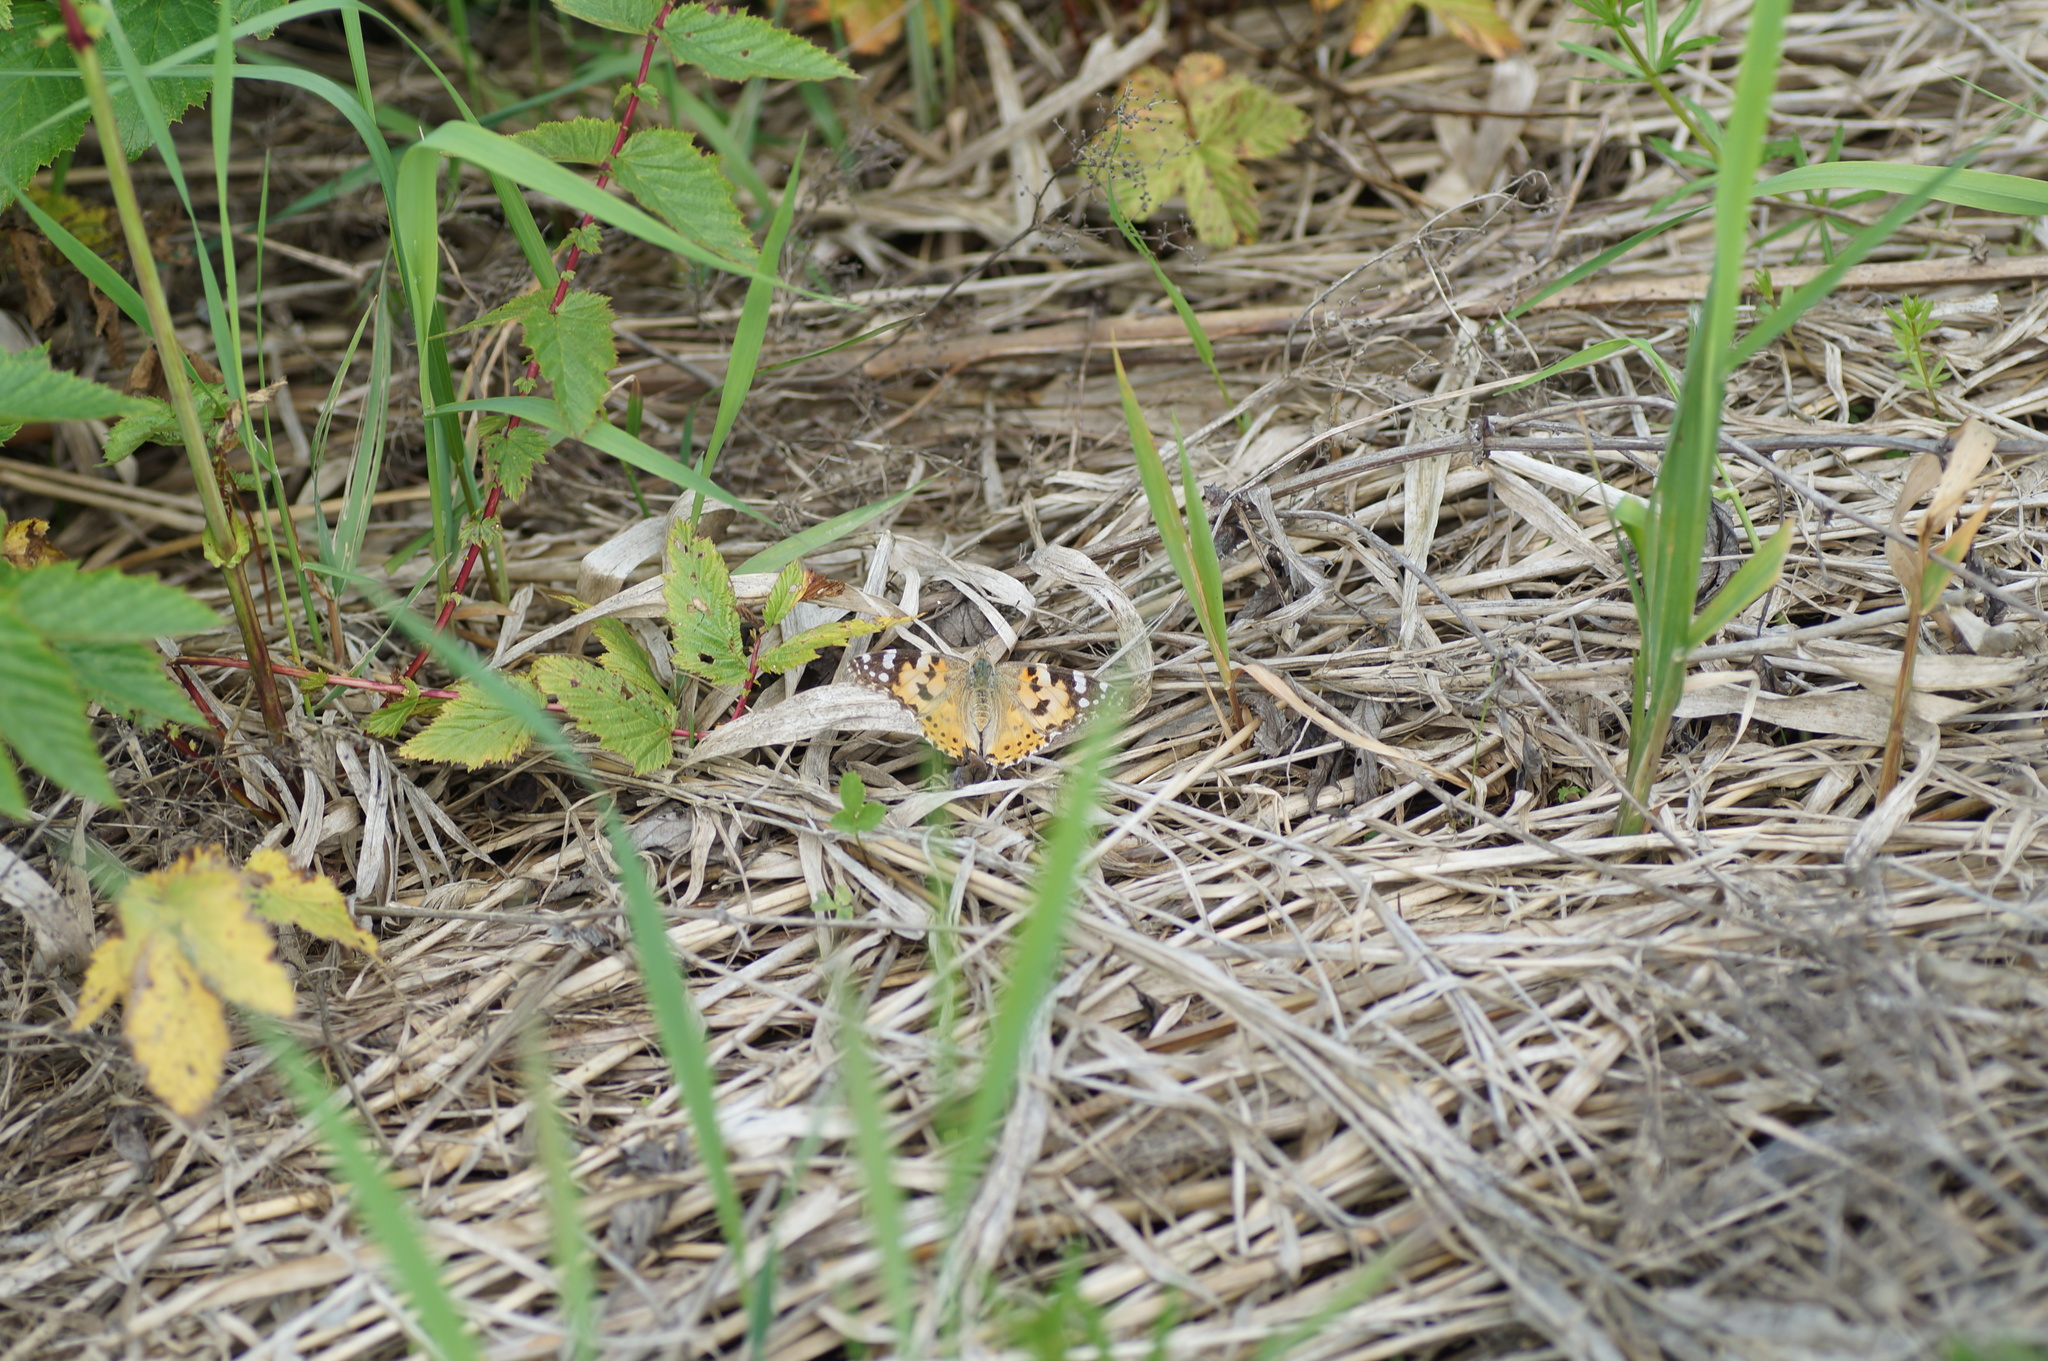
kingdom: Animalia
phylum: Arthropoda
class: Insecta
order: Lepidoptera
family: Nymphalidae
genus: Vanessa
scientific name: Vanessa cardui
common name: Painted lady
